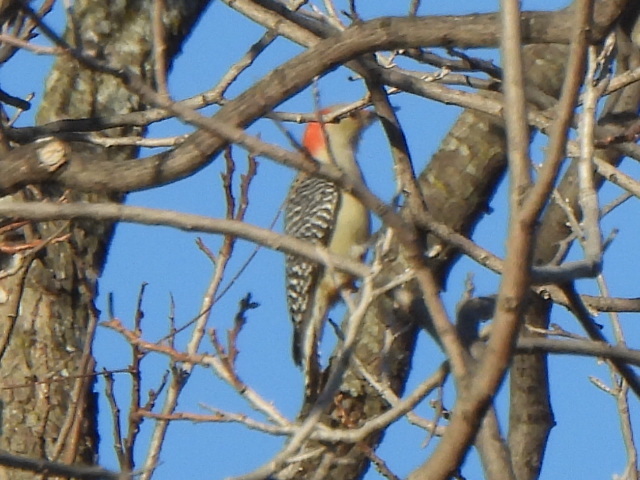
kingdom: Animalia
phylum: Chordata
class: Aves
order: Piciformes
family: Picidae
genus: Melanerpes
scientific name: Melanerpes carolinus
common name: Red-bellied woodpecker
